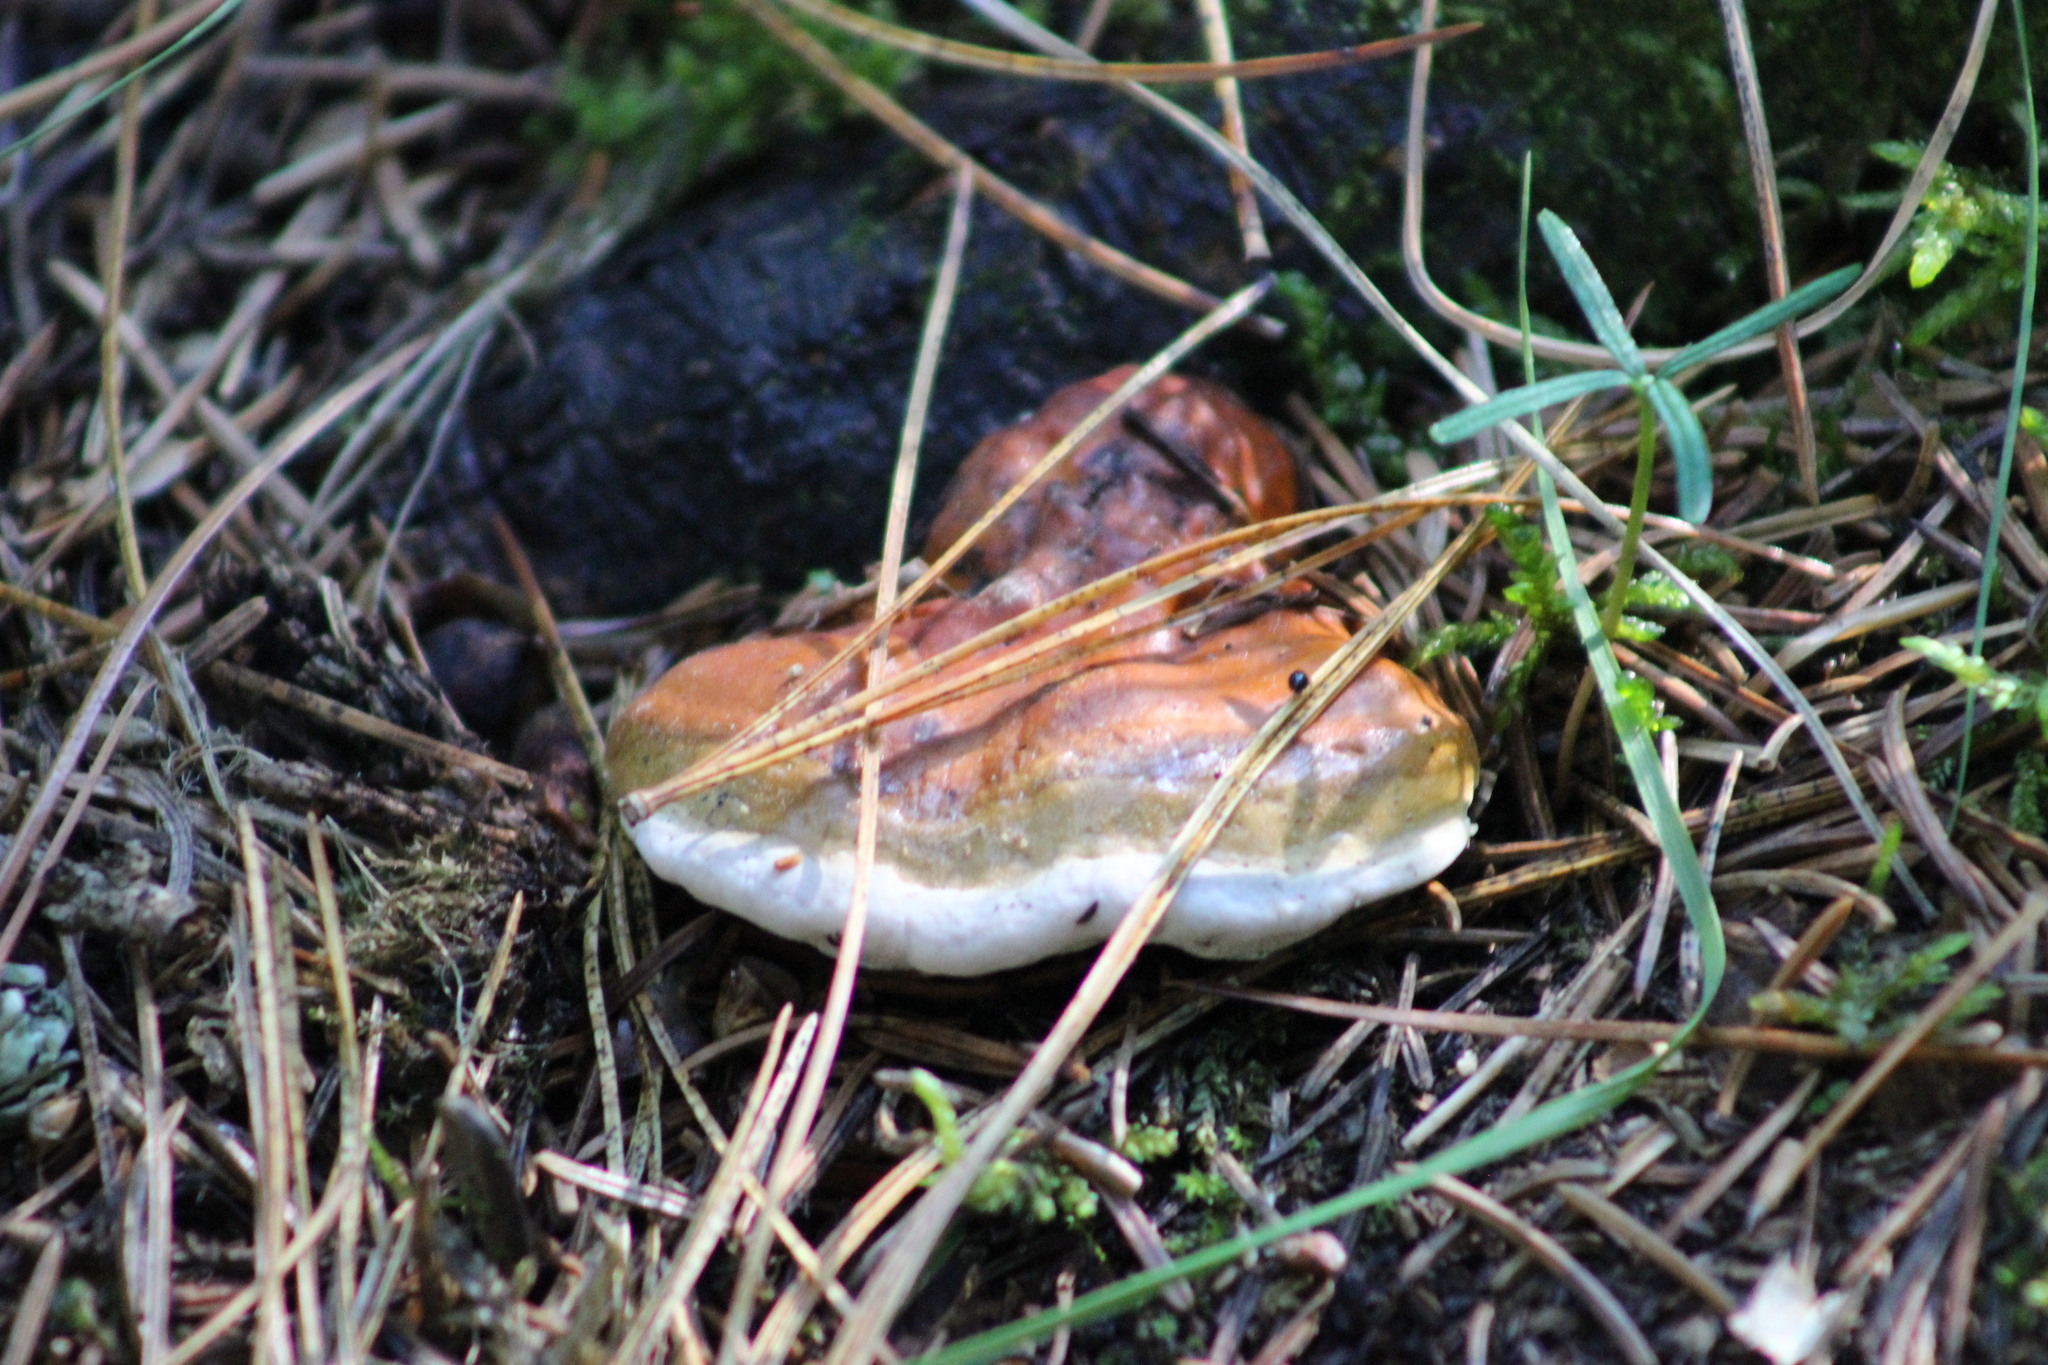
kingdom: Fungi
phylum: Basidiomycota
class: Agaricomycetes
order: Polyporales
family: Fomitopsidaceae
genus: Fomitopsis
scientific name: Fomitopsis pinicola
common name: Red-belted bracket
